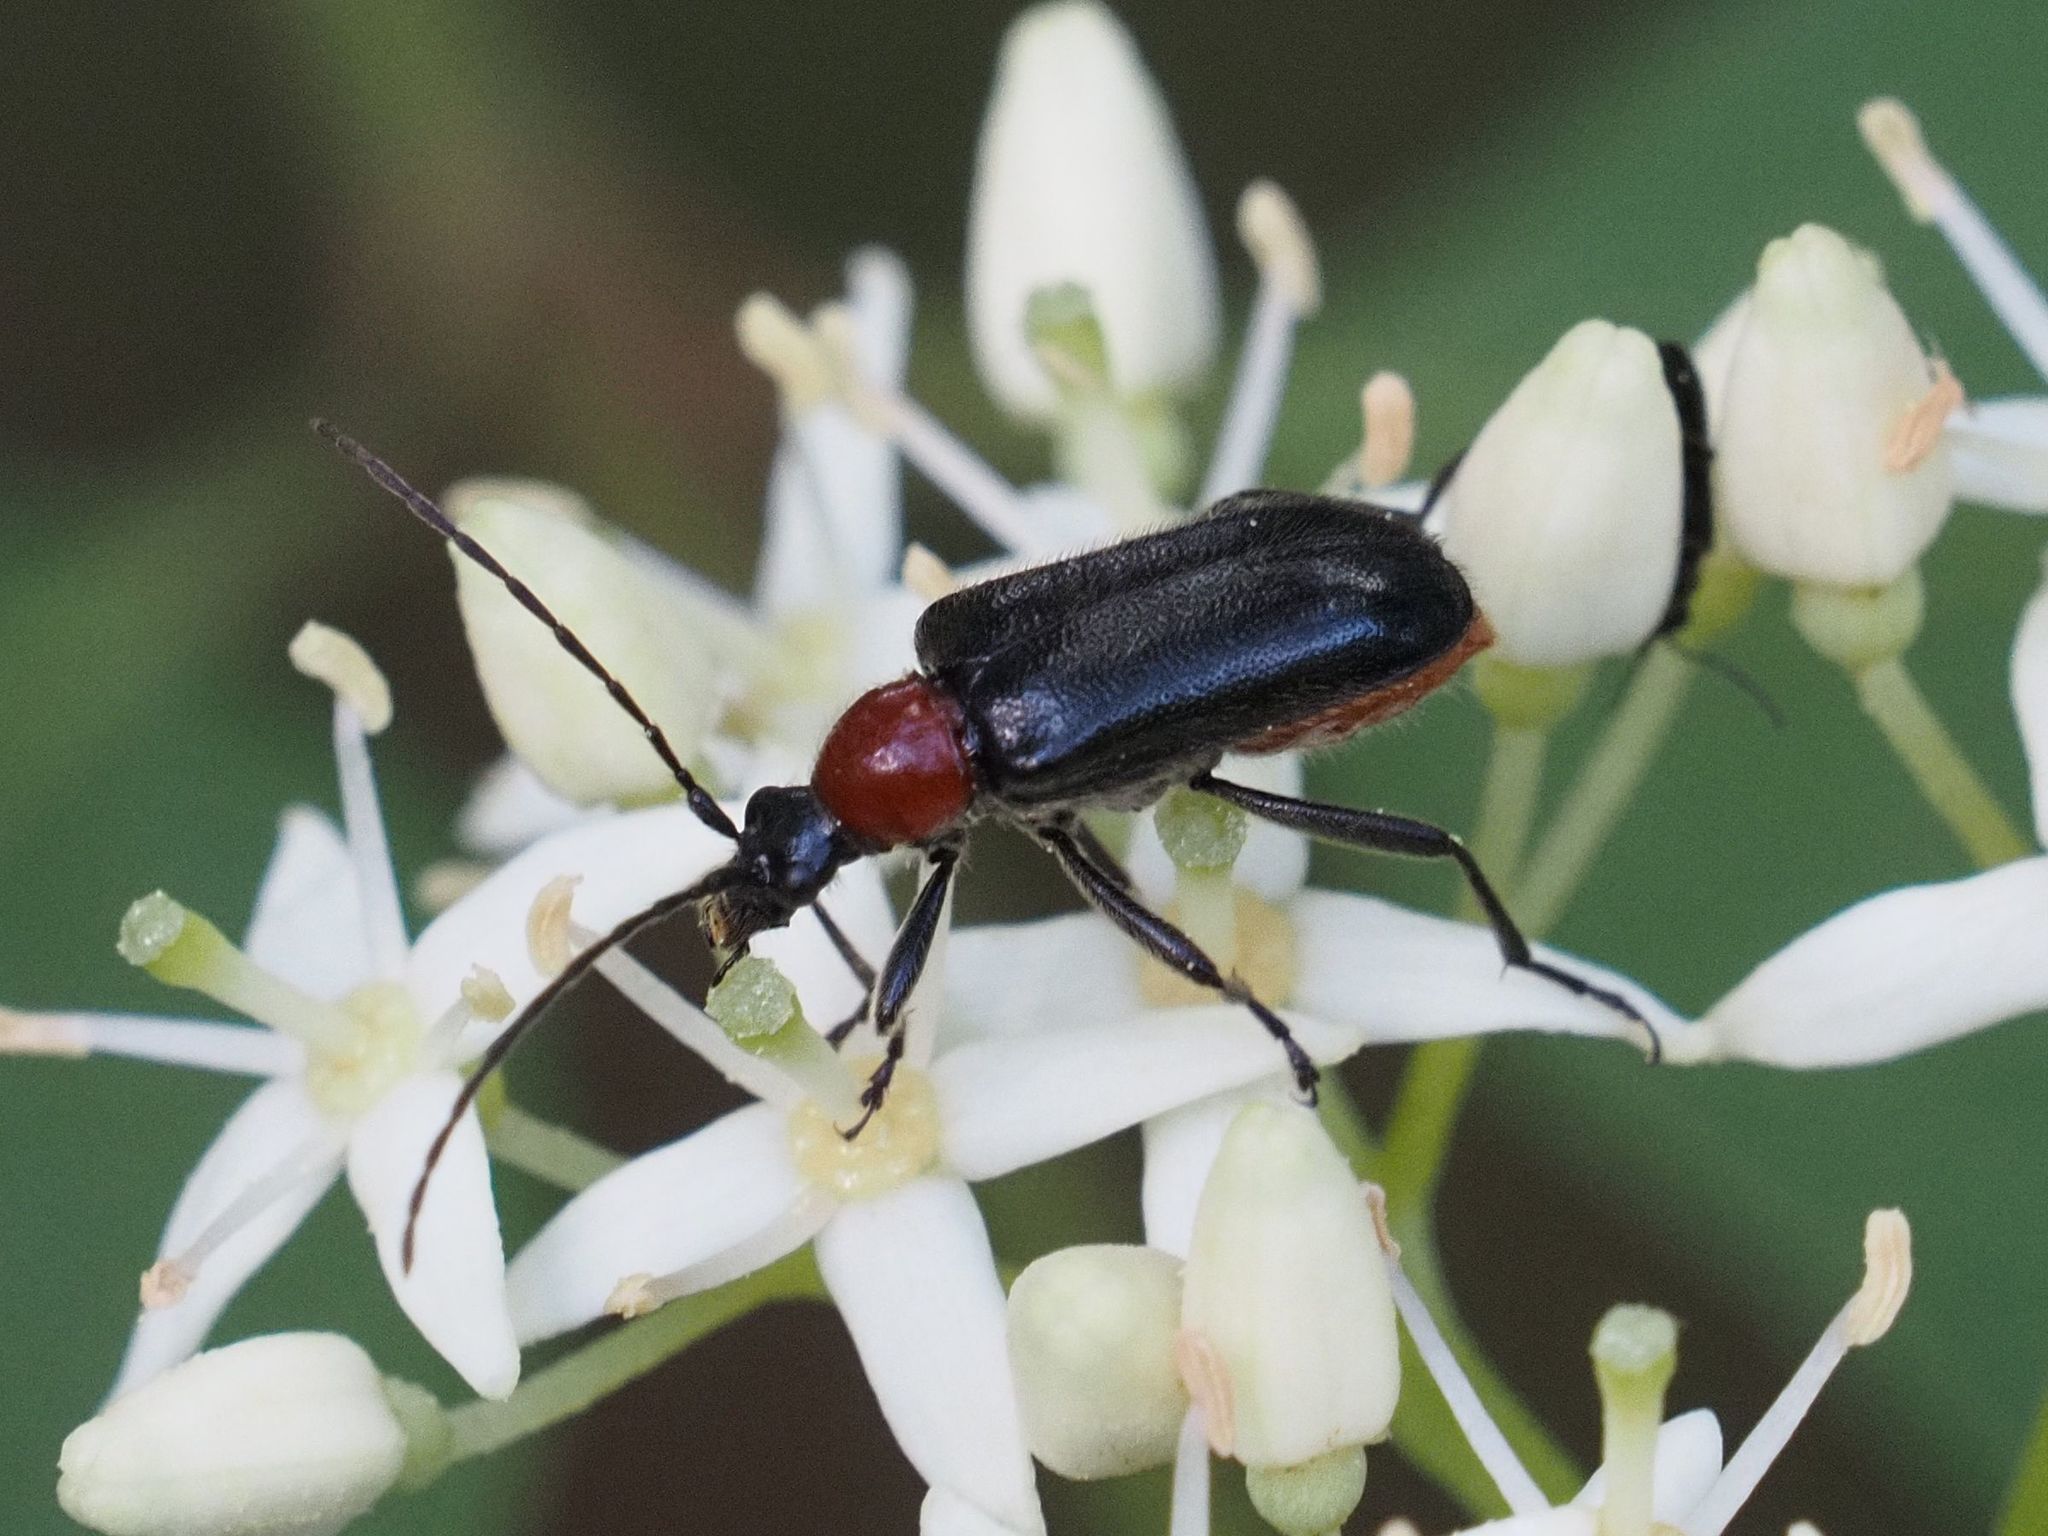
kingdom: Animalia
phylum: Arthropoda
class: Insecta
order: Coleoptera
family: Cerambycidae
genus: Dinoptera
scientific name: Dinoptera collaris
